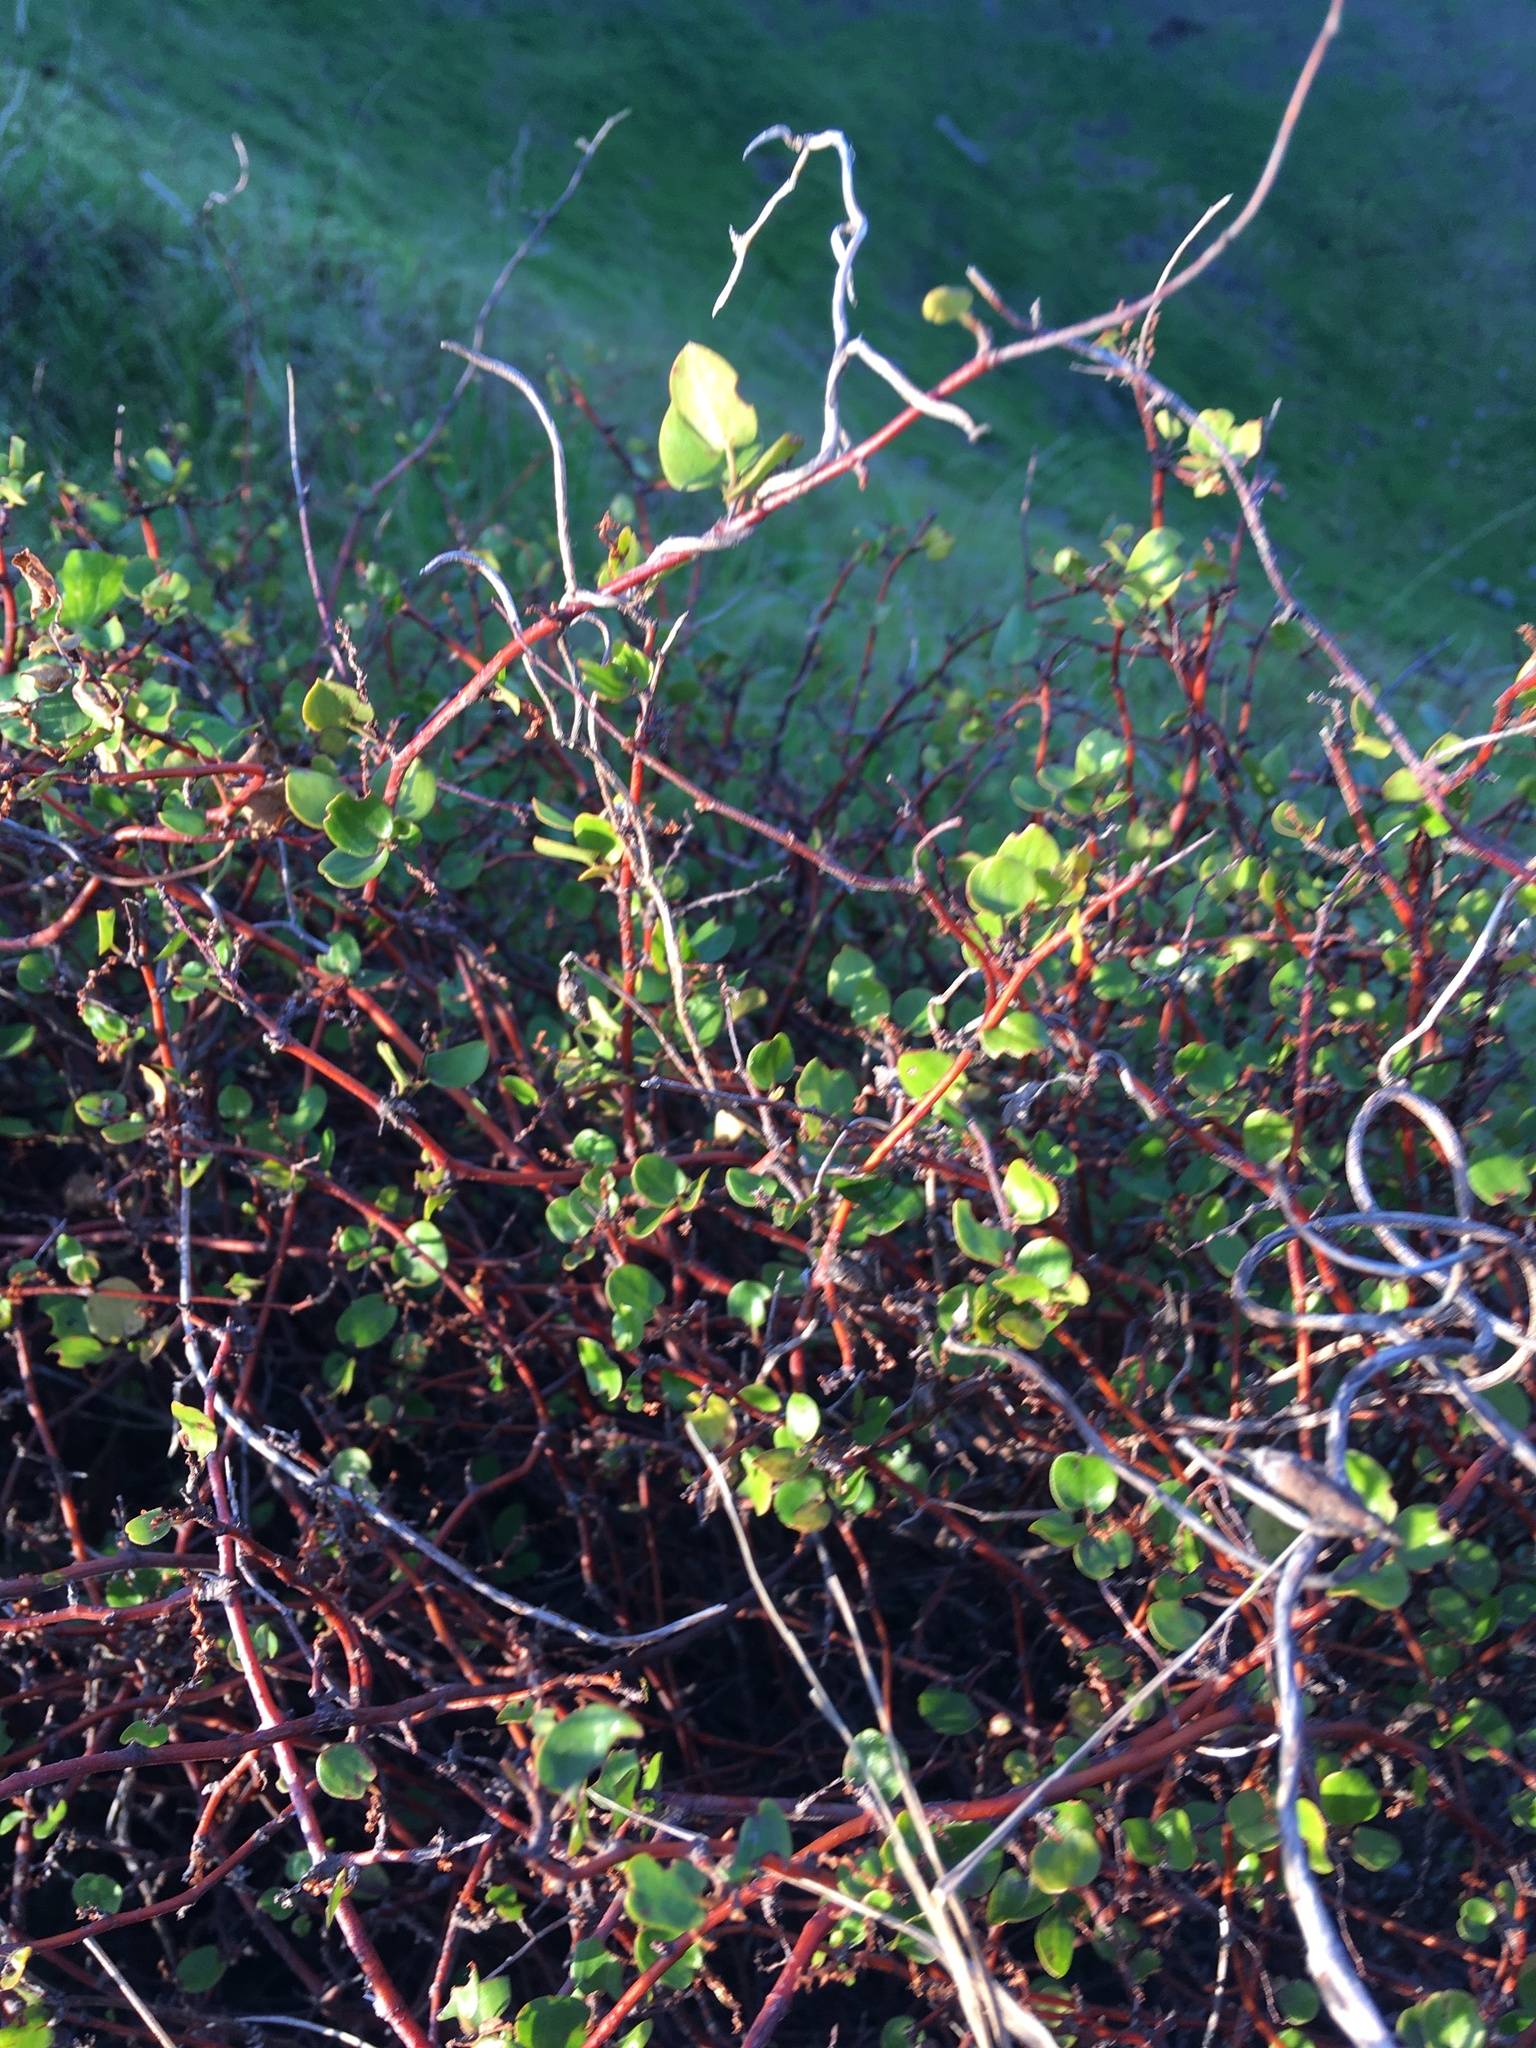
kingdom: Plantae
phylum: Tracheophyta
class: Magnoliopsida
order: Caryophyllales
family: Polygonaceae
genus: Muehlenbeckia
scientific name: Muehlenbeckia complexa
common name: Wireplant
